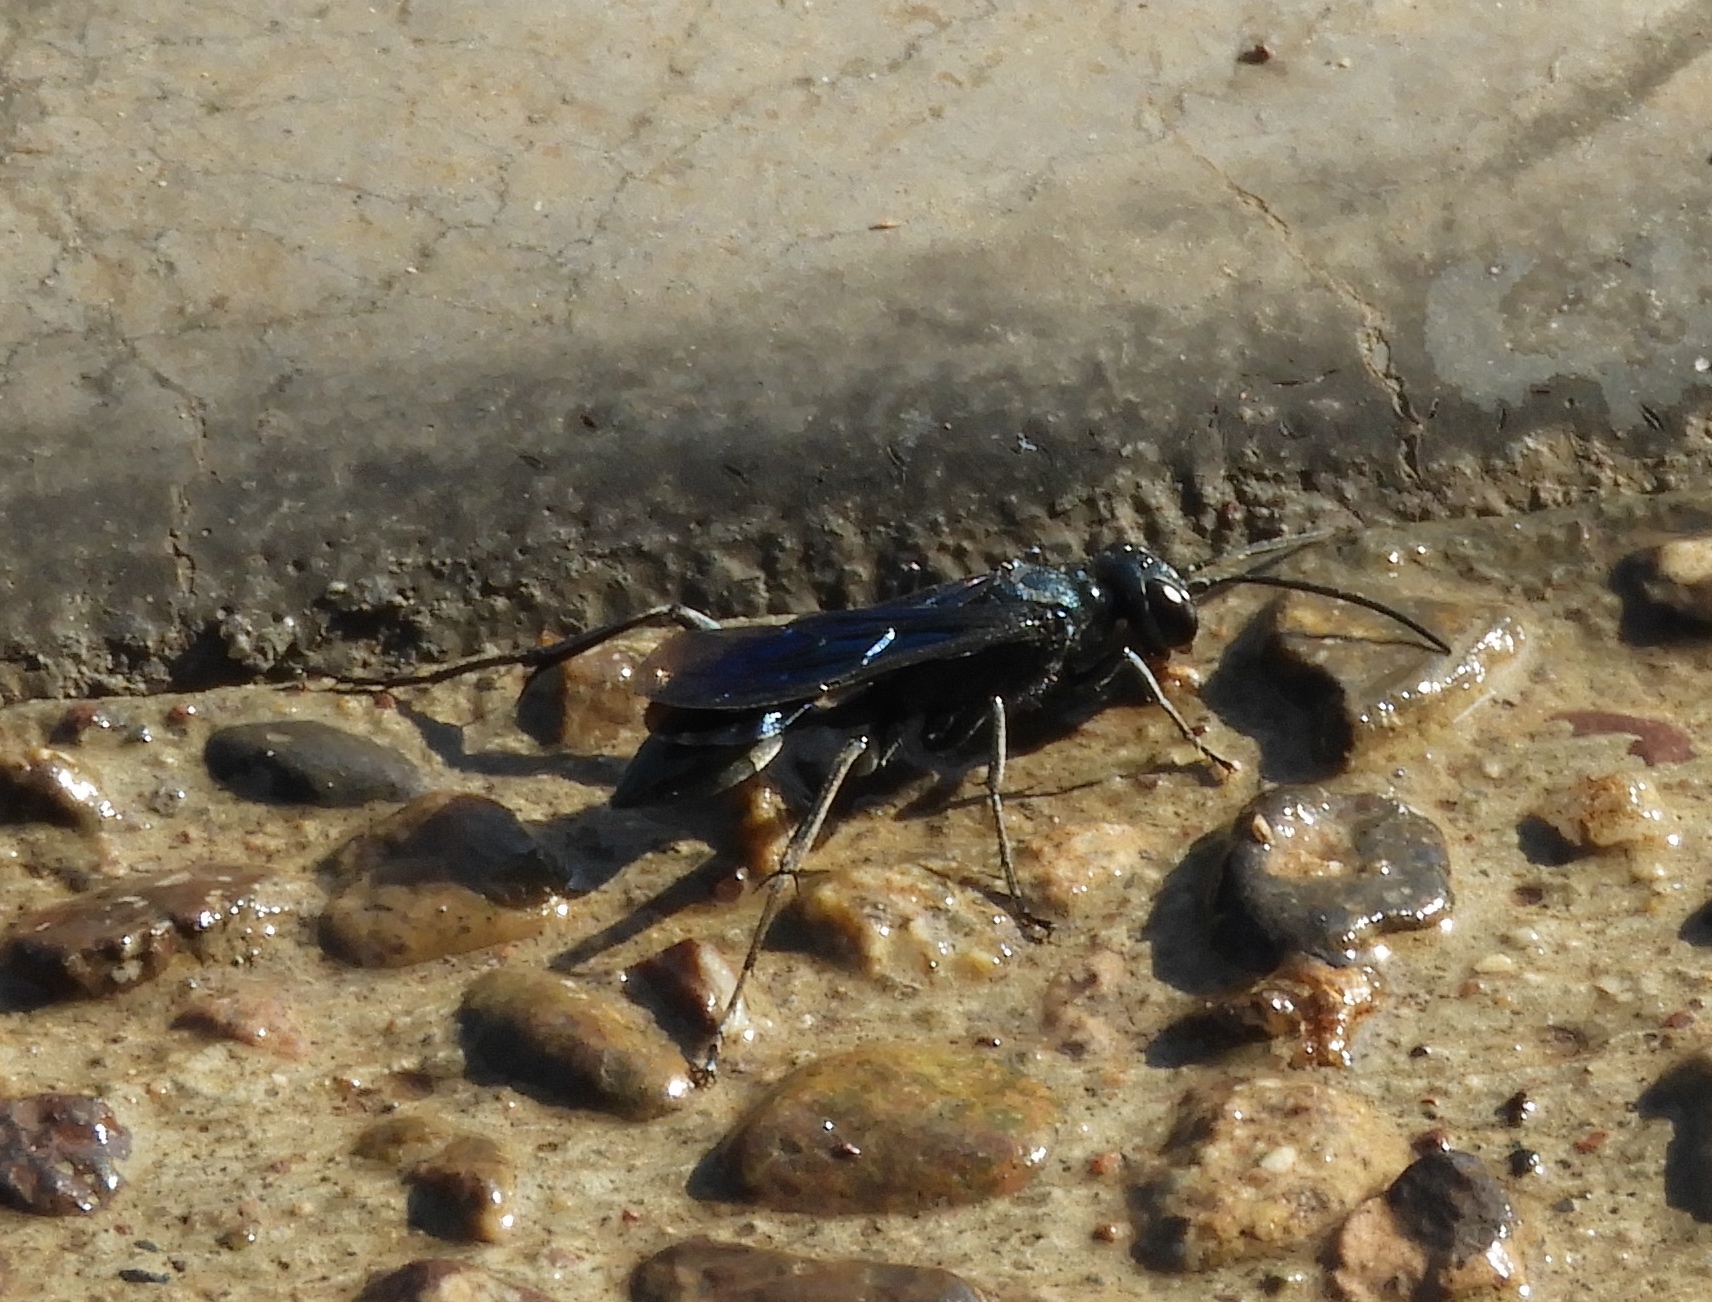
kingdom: Animalia
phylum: Arthropoda
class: Insecta
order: Hymenoptera
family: Sphecidae
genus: Chalybion
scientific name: Chalybion
